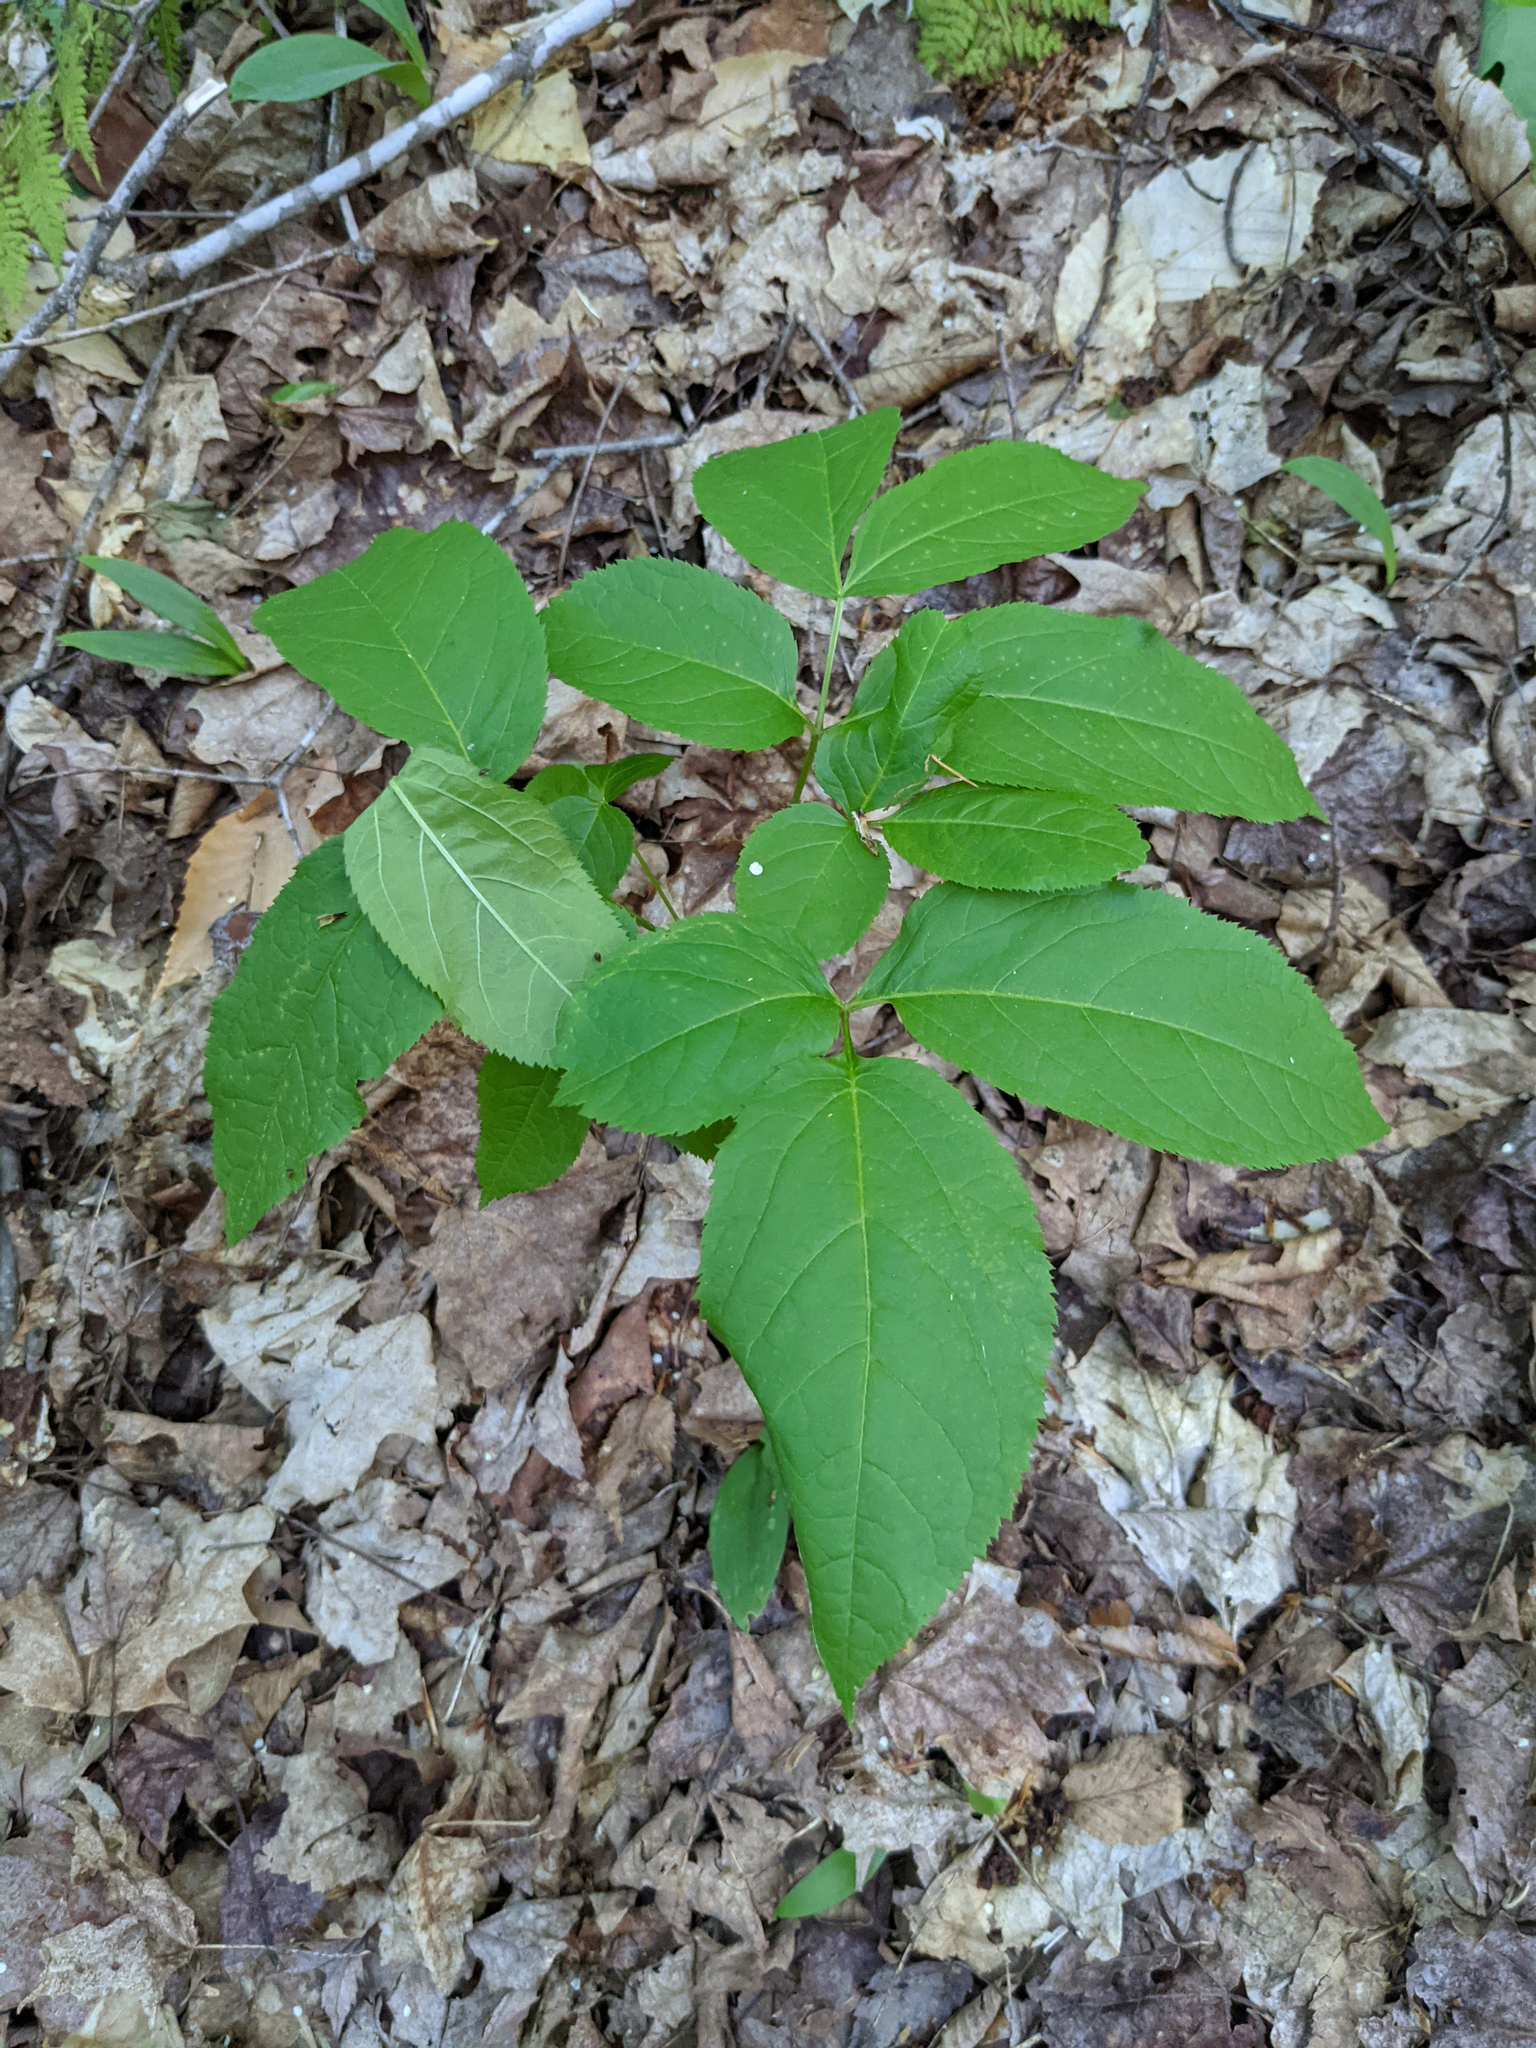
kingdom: Plantae
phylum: Tracheophyta
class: Magnoliopsida
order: Apiales
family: Araliaceae
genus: Aralia
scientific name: Aralia nudicaulis
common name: Wild sarsaparilla
